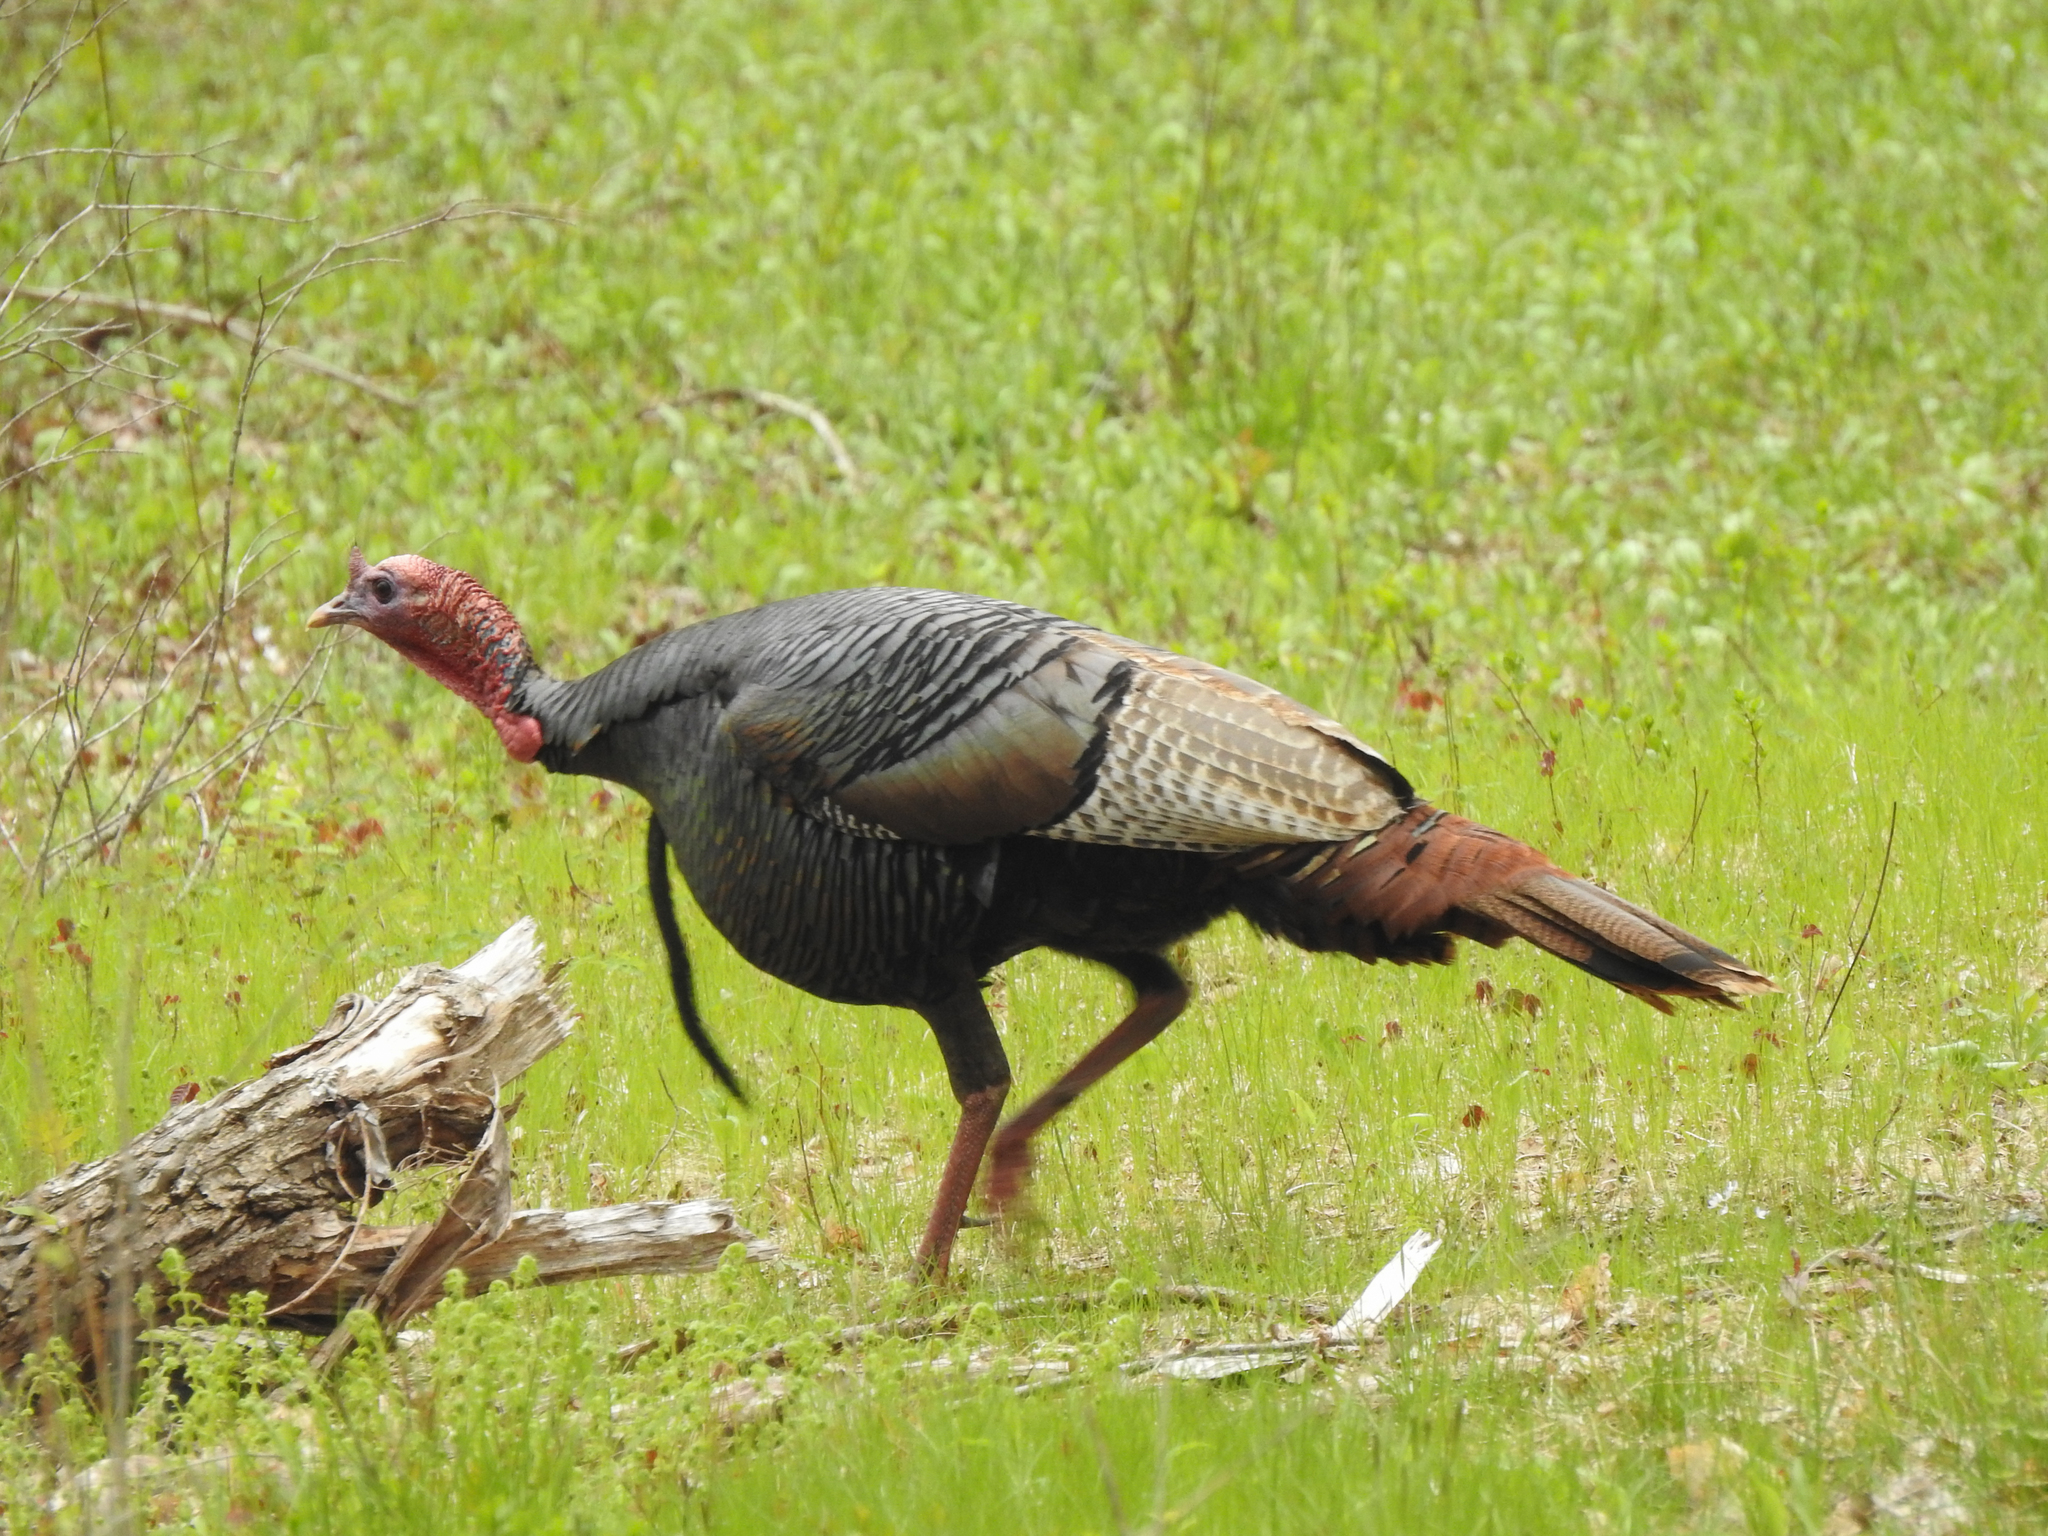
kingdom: Animalia
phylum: Chordata
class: Aves
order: Galliformes
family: Phasianidae
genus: Meleagris
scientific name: Meleagris gallopavo
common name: Wild turkey
